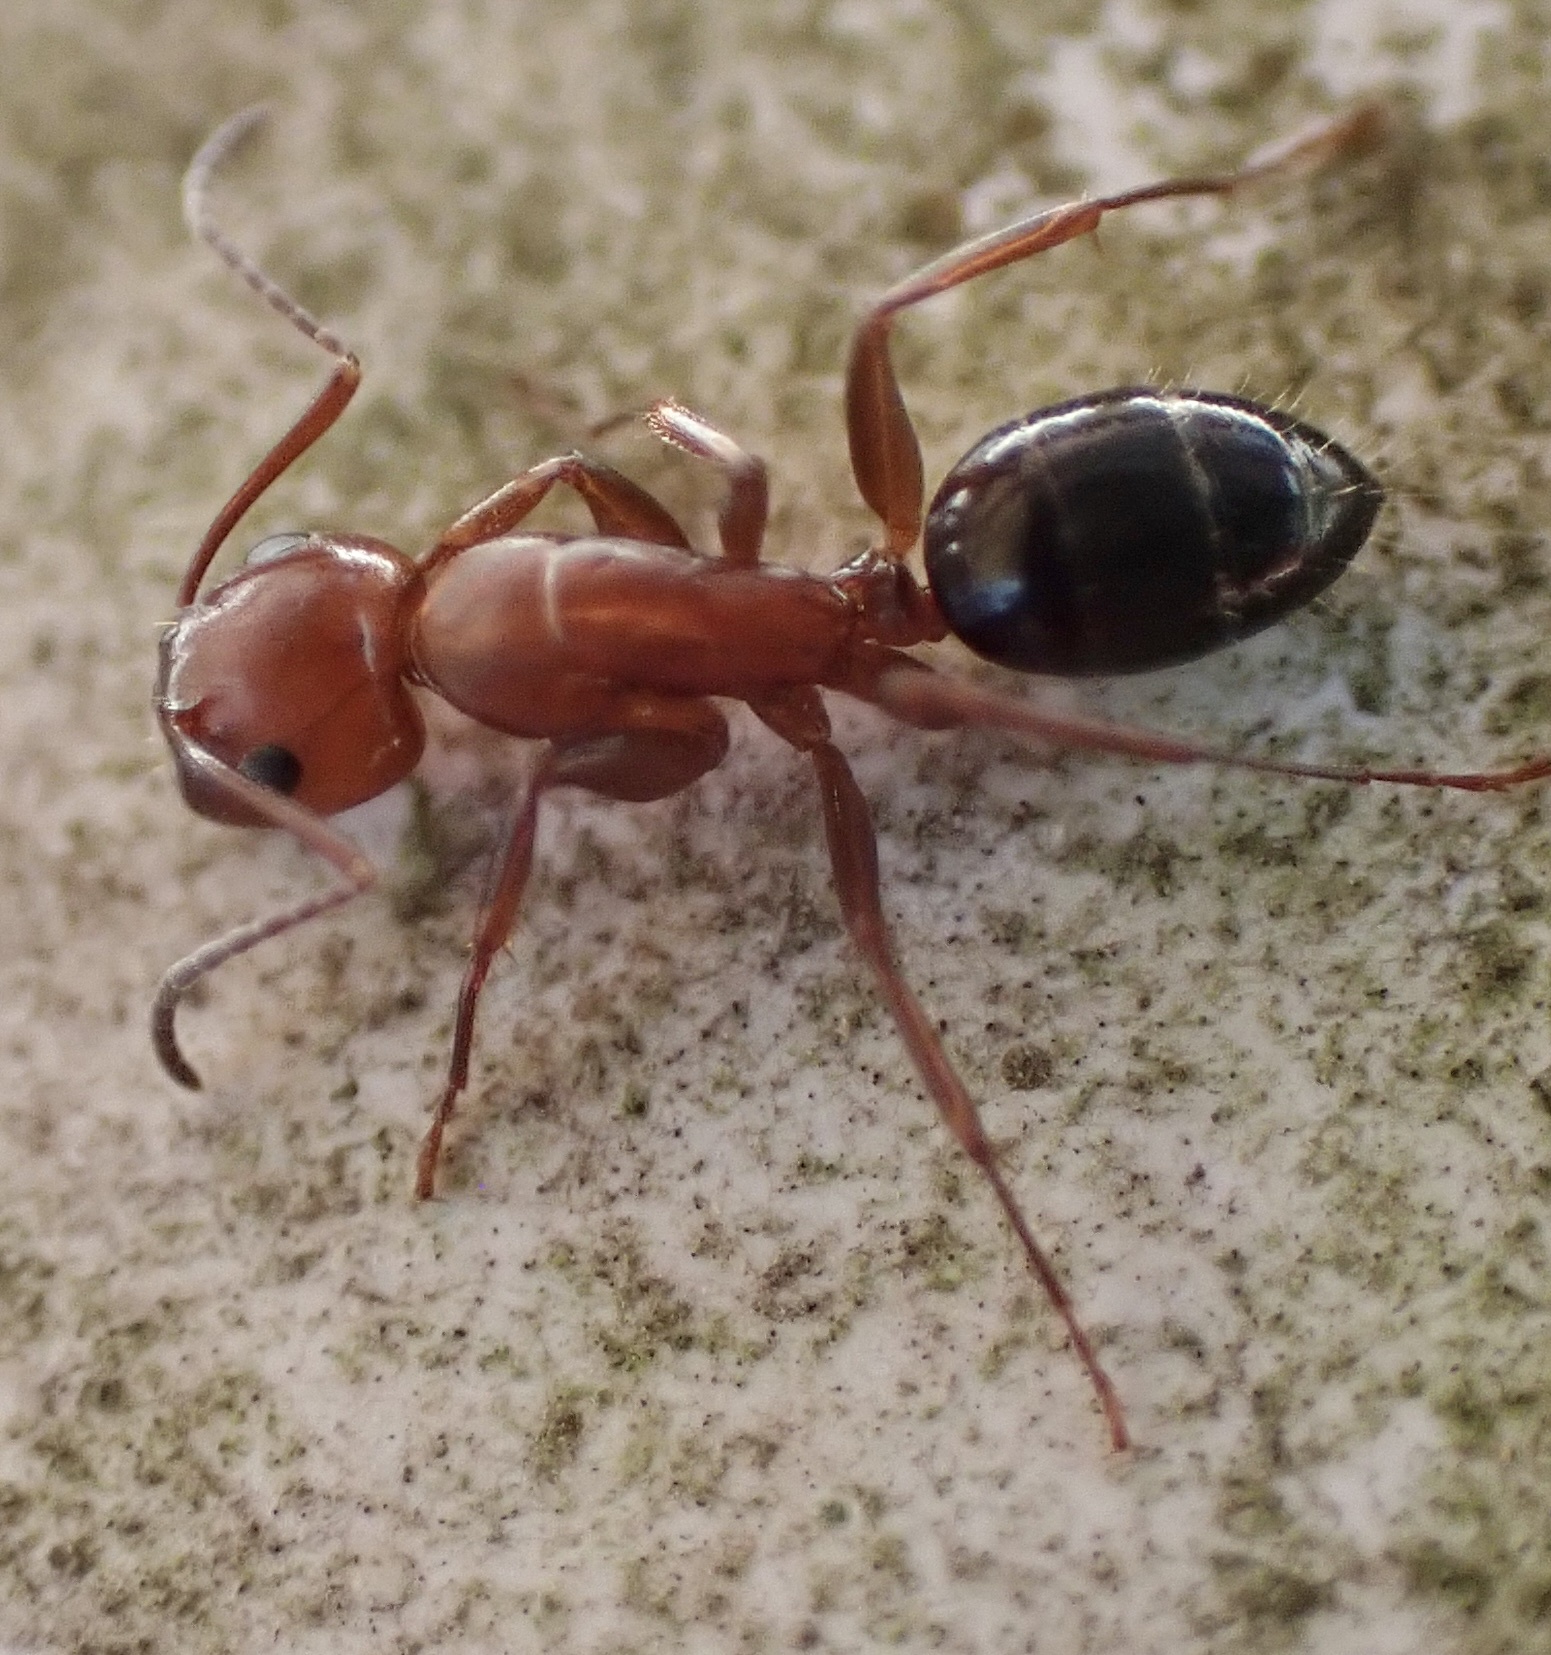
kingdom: Animalia
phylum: Arthropoda
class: Insecta
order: Hymenoptera
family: Formicidae
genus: Camponotus
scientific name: Camponotus decipiens
